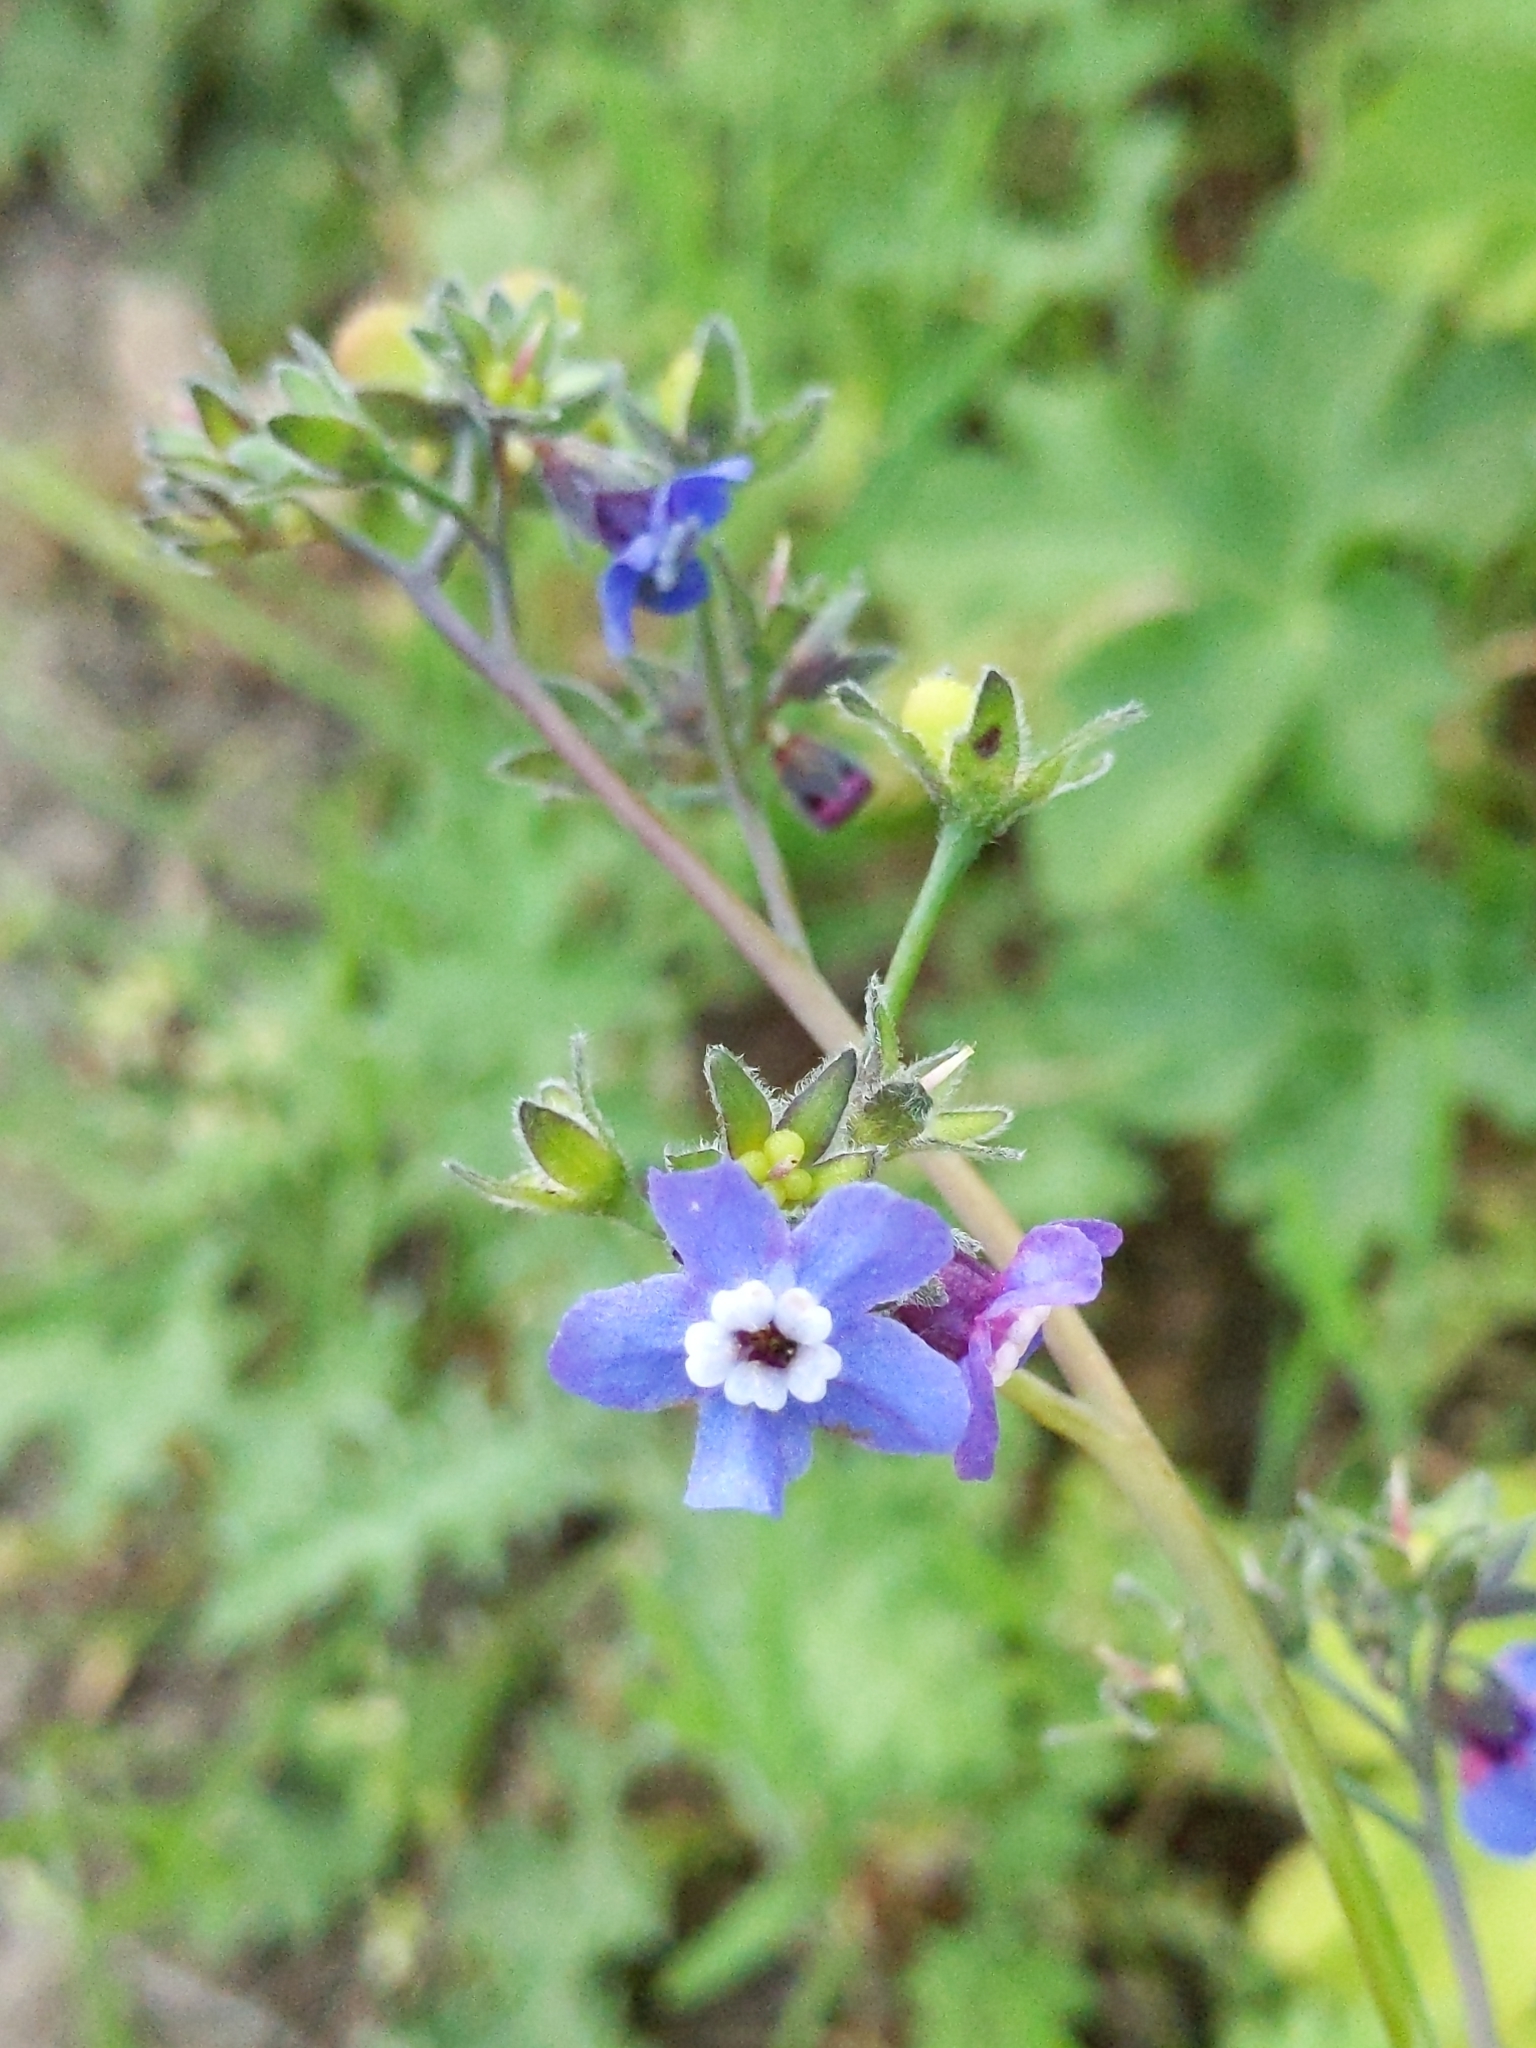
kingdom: Plantae
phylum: Tracheophyta
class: Magnoliopsida
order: Boraginales
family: Boraginaceae
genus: Adelinia
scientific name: Adelinia grande
